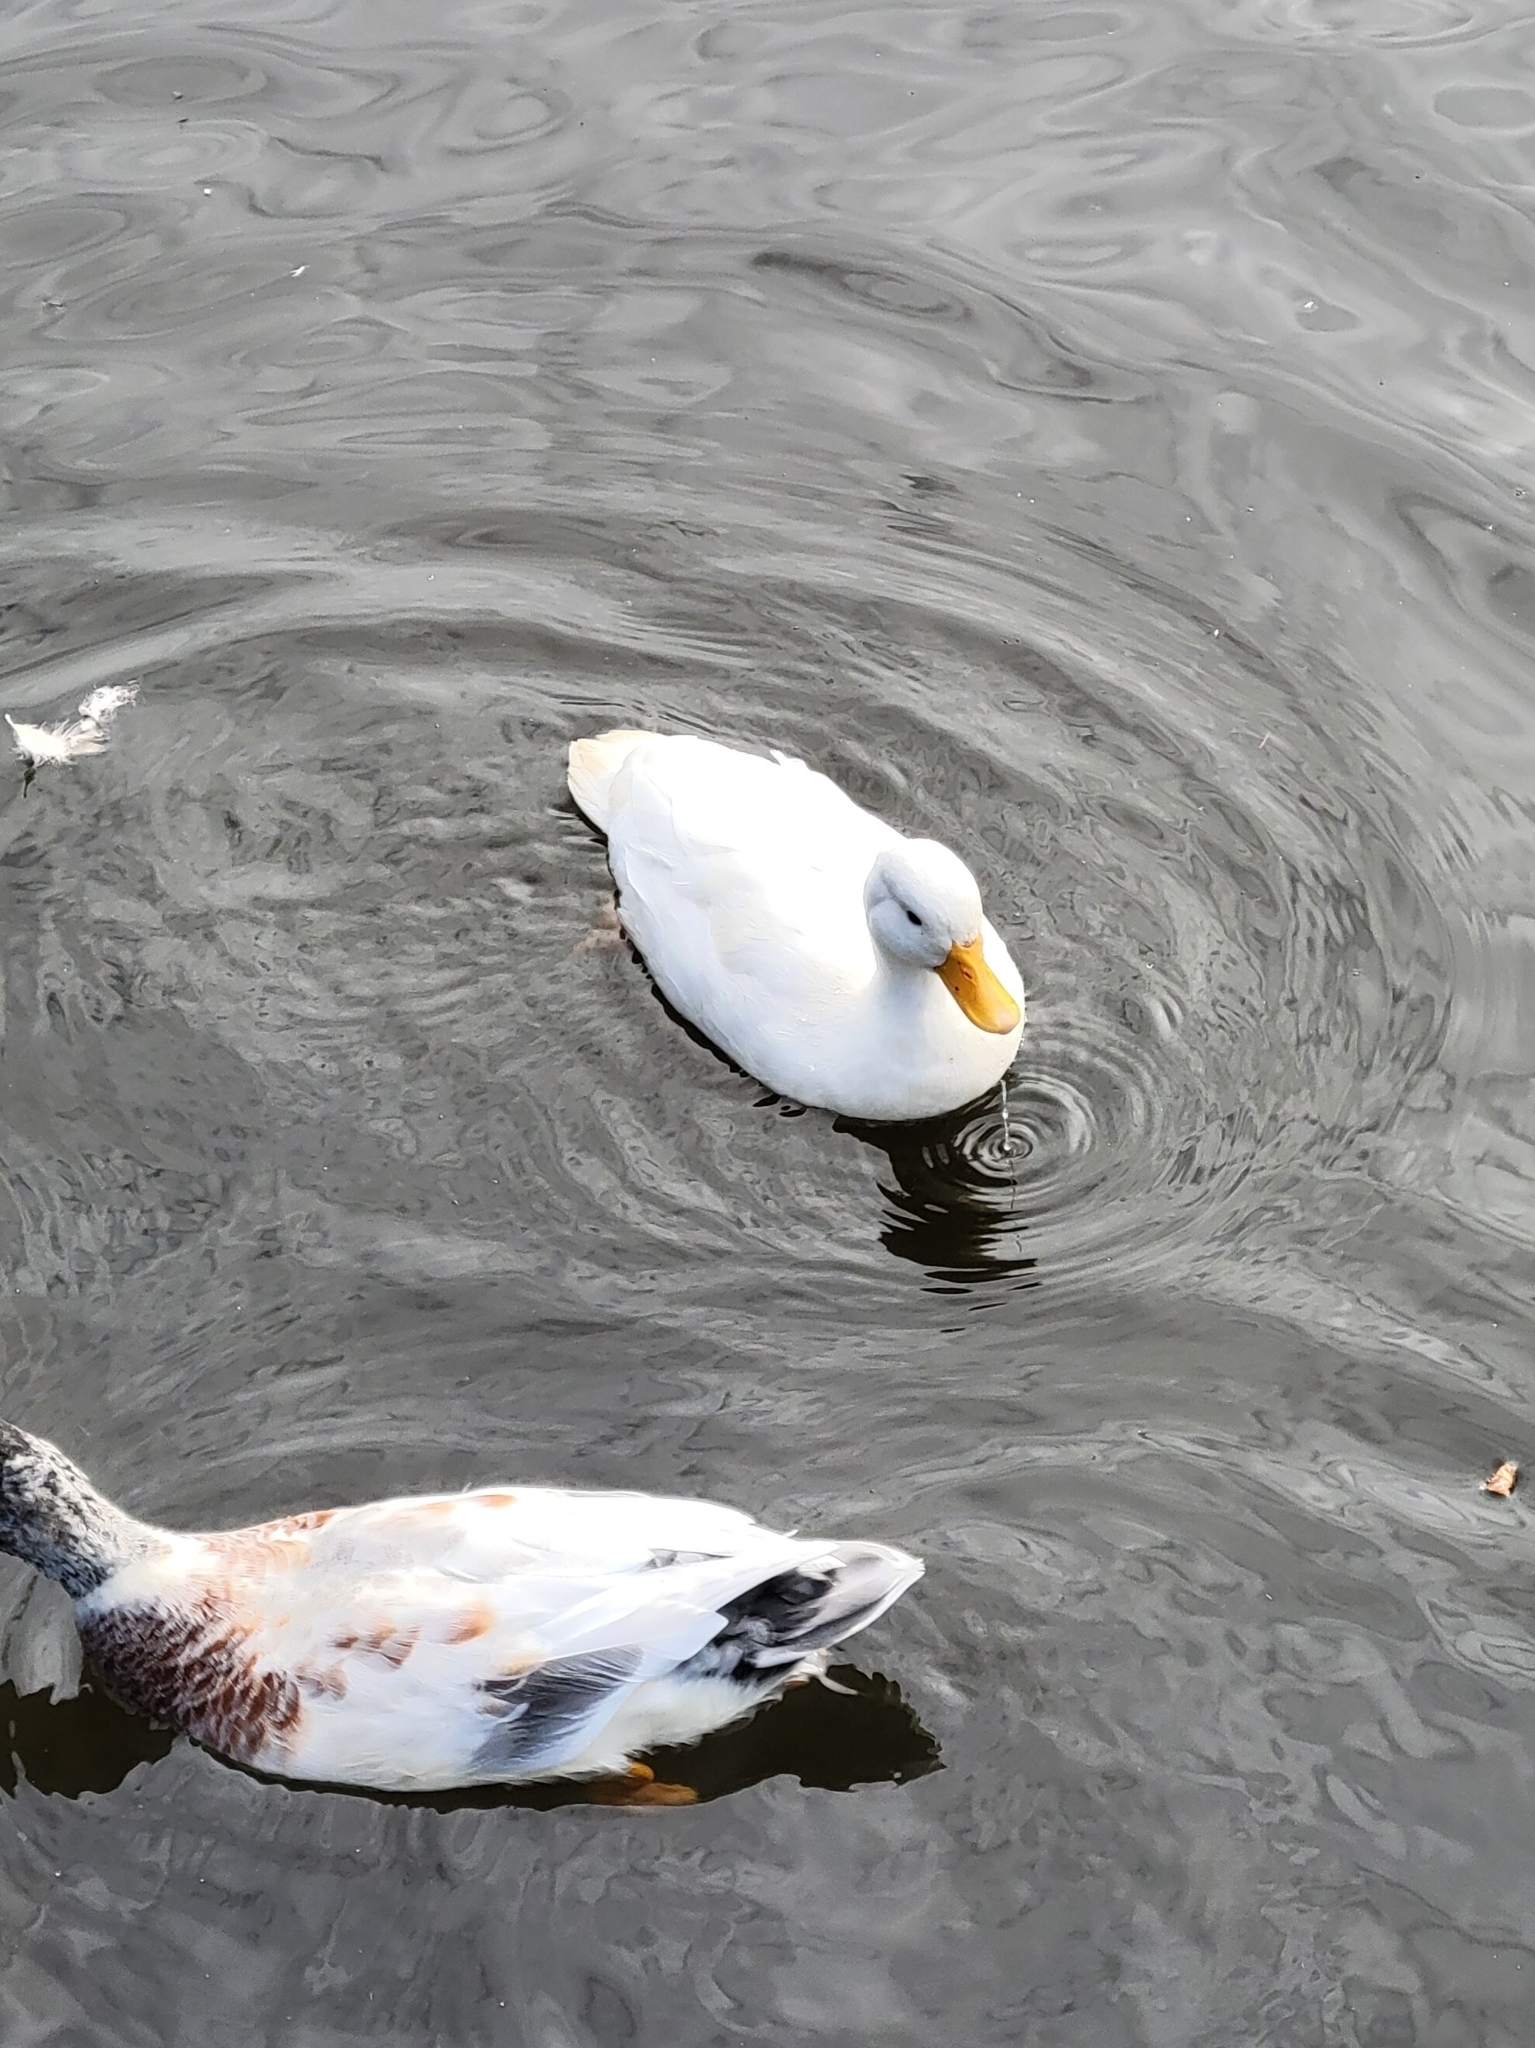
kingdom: Animalia
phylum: Chordata
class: Aves
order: Anseriformes
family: Anatidae
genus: Anas
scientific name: Anas platyrhynchos
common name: Mallard
